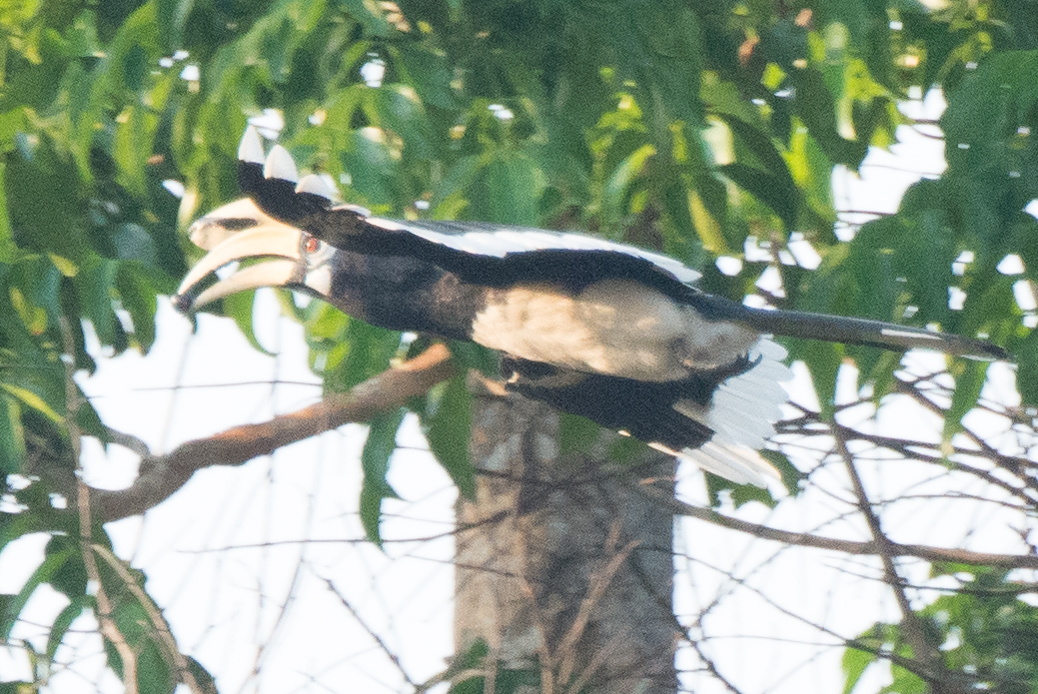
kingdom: Animalia
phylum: Chordata
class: Aves
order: Bucerotiformes
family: Bucerotidae
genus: Anthracoceros
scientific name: Anthracoceros albirostris
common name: Oriental pied-hornbill
